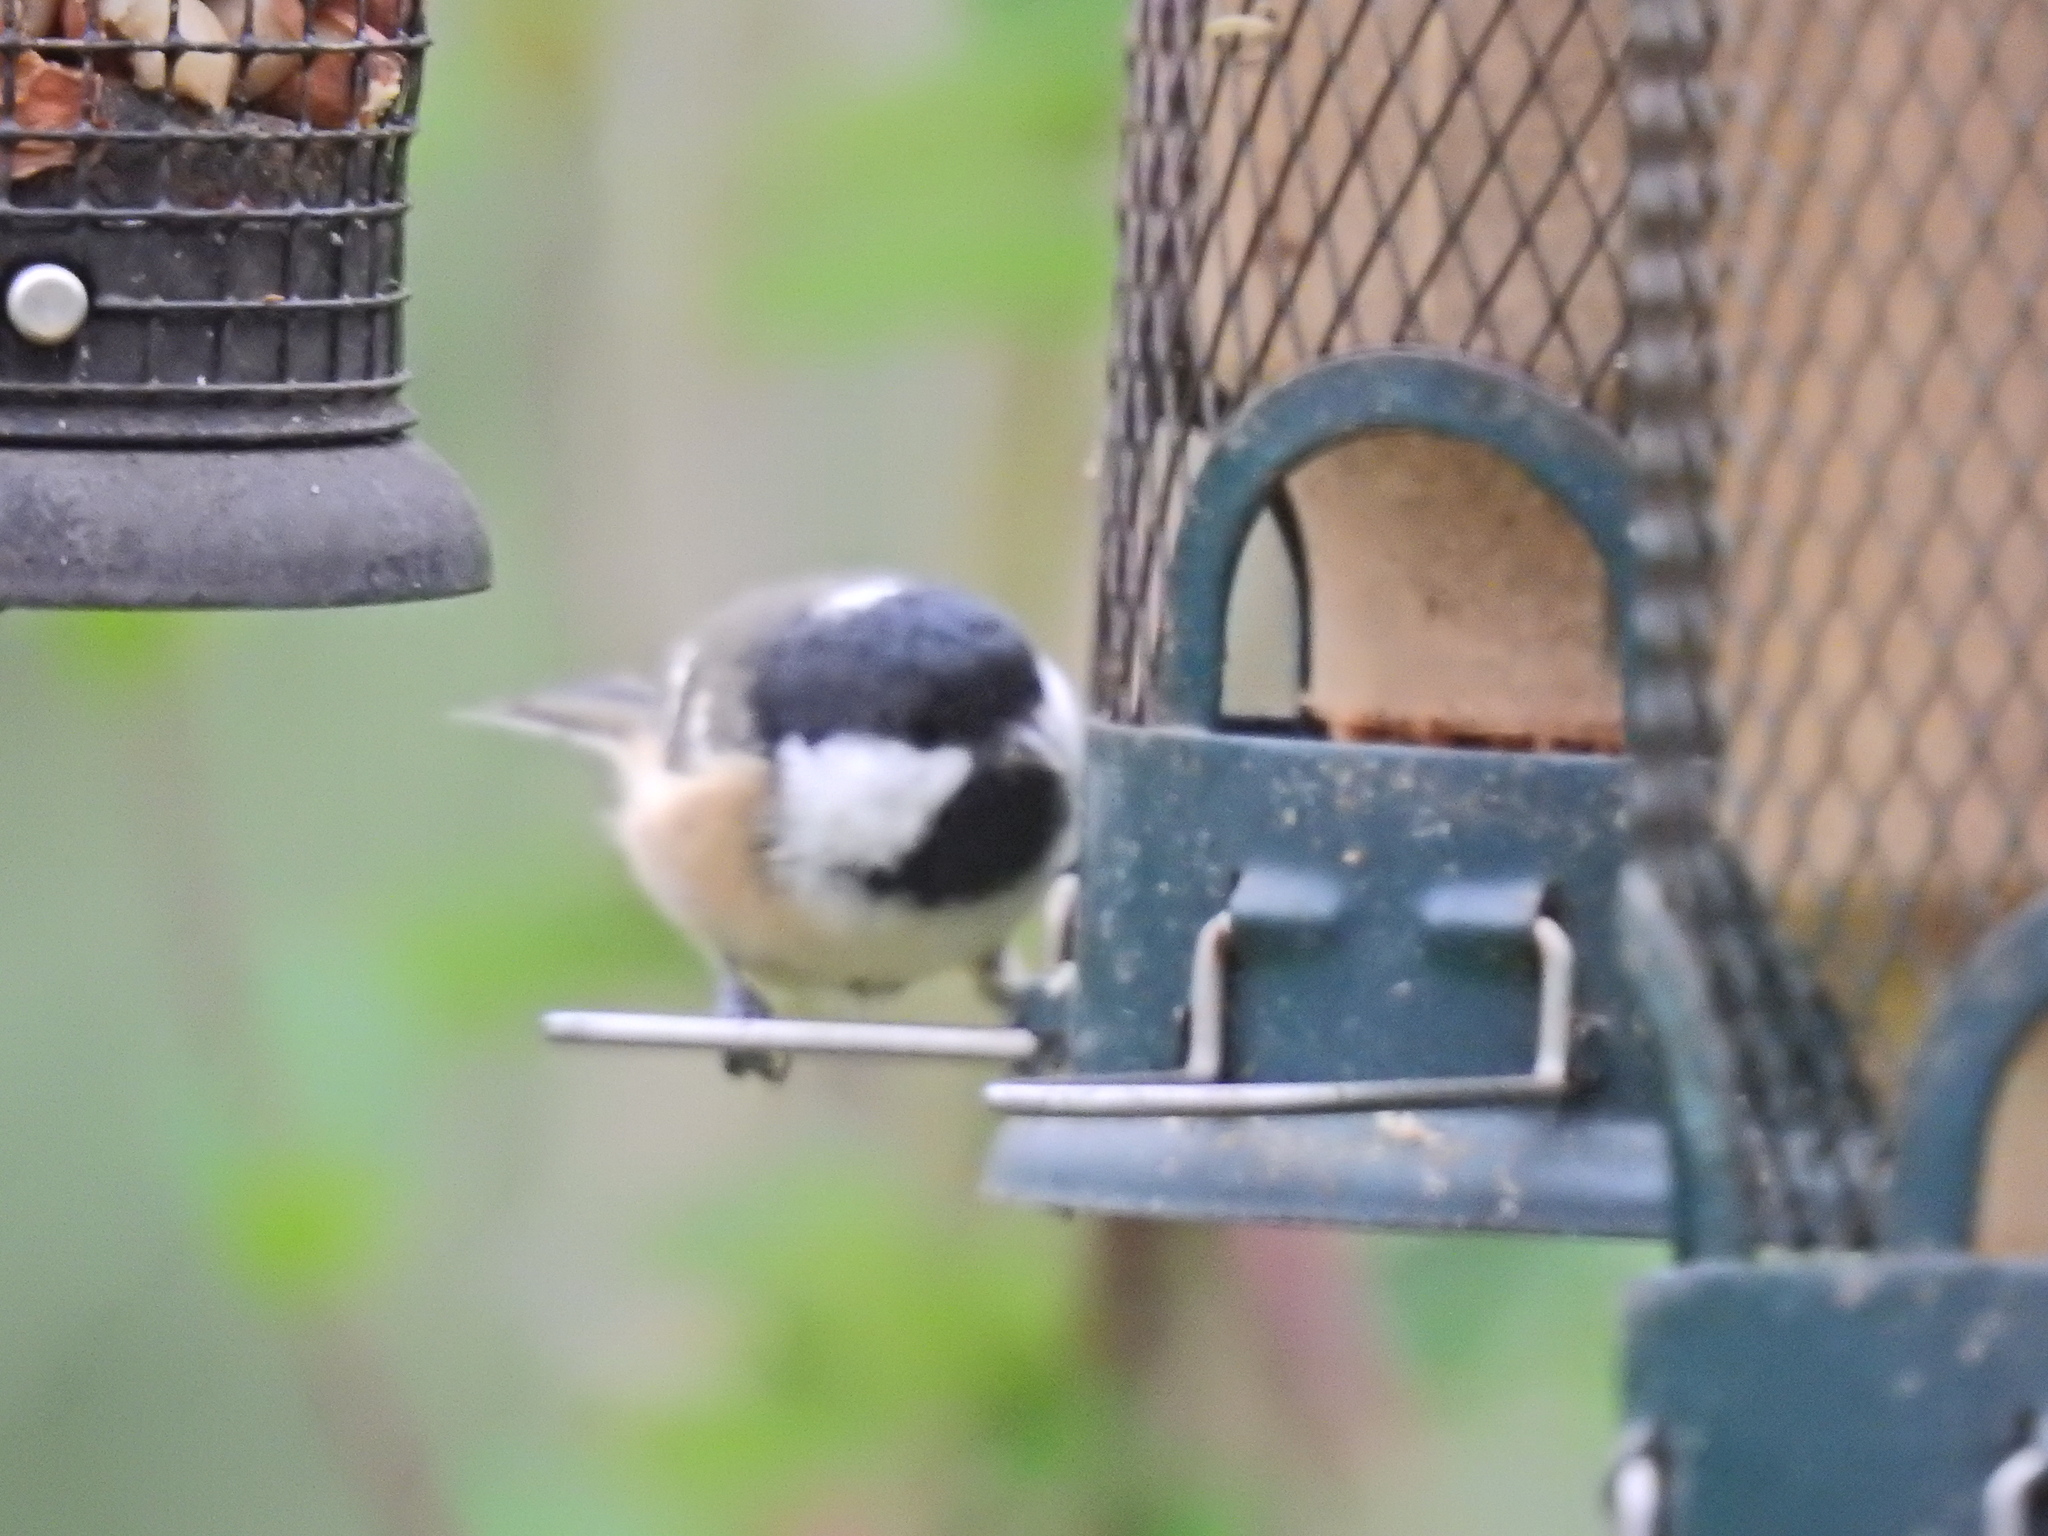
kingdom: Animalia
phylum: Chordata
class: Aves
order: Passeriformes
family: Paridae
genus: Periparus
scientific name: Periparus ater
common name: Coal tit
